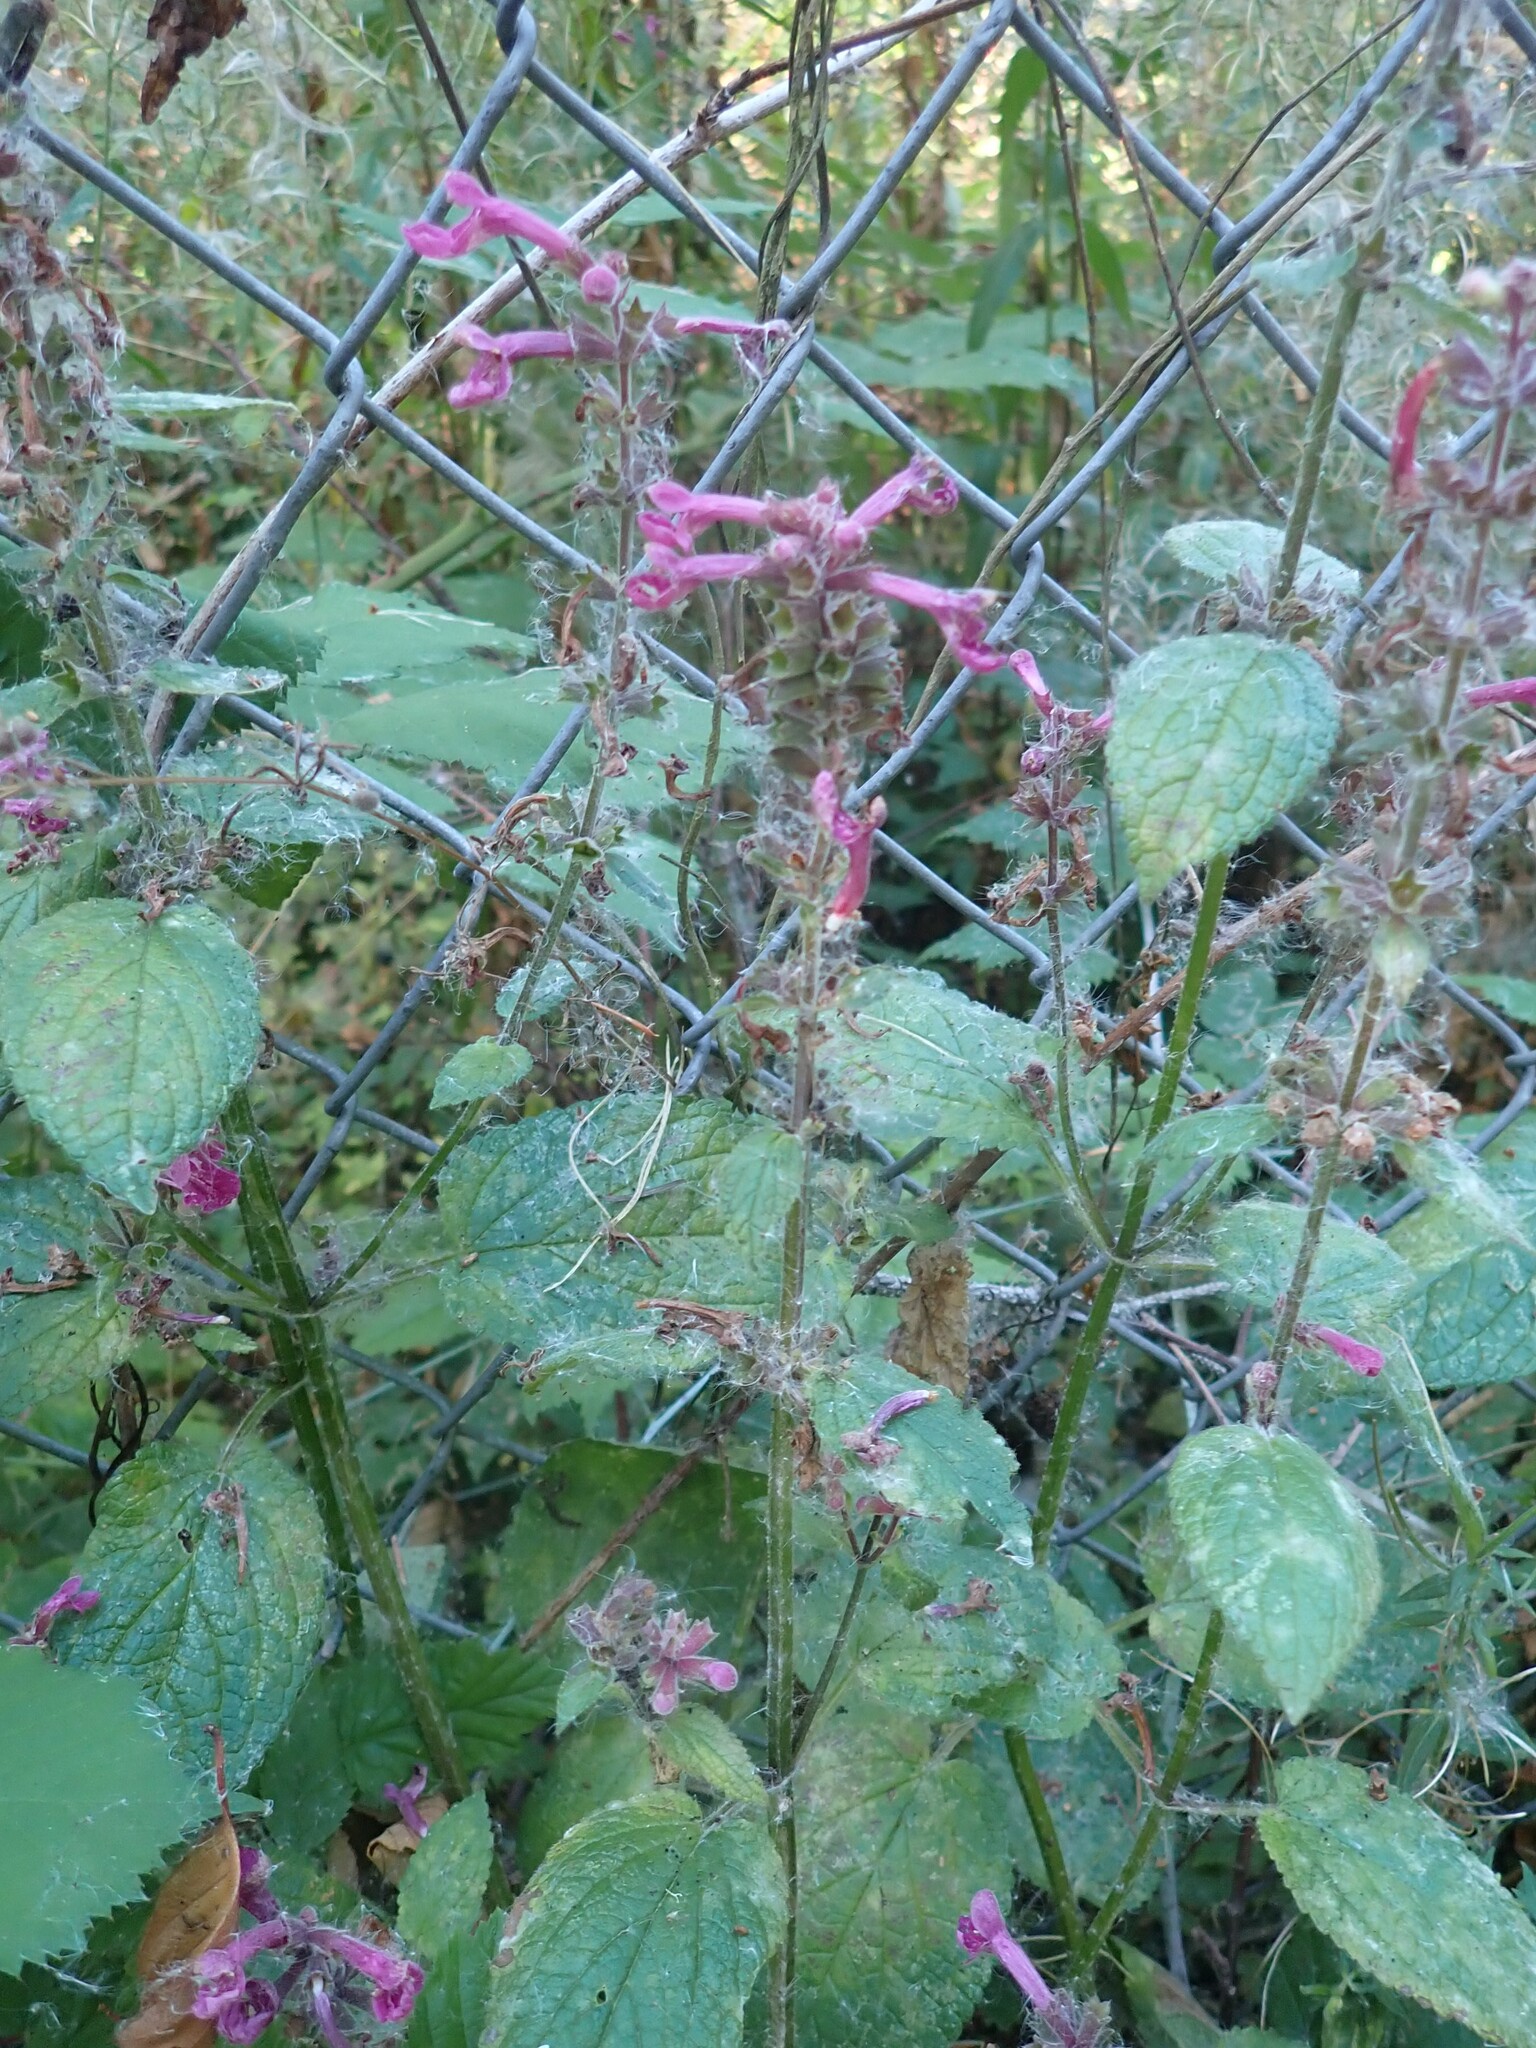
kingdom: Plantae
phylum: Tracheophyta
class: Magnoliopsida
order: Lamiales
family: Lamiaceae
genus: Stachys
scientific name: Stachys chamissonis
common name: Coastal hedge-nettle
